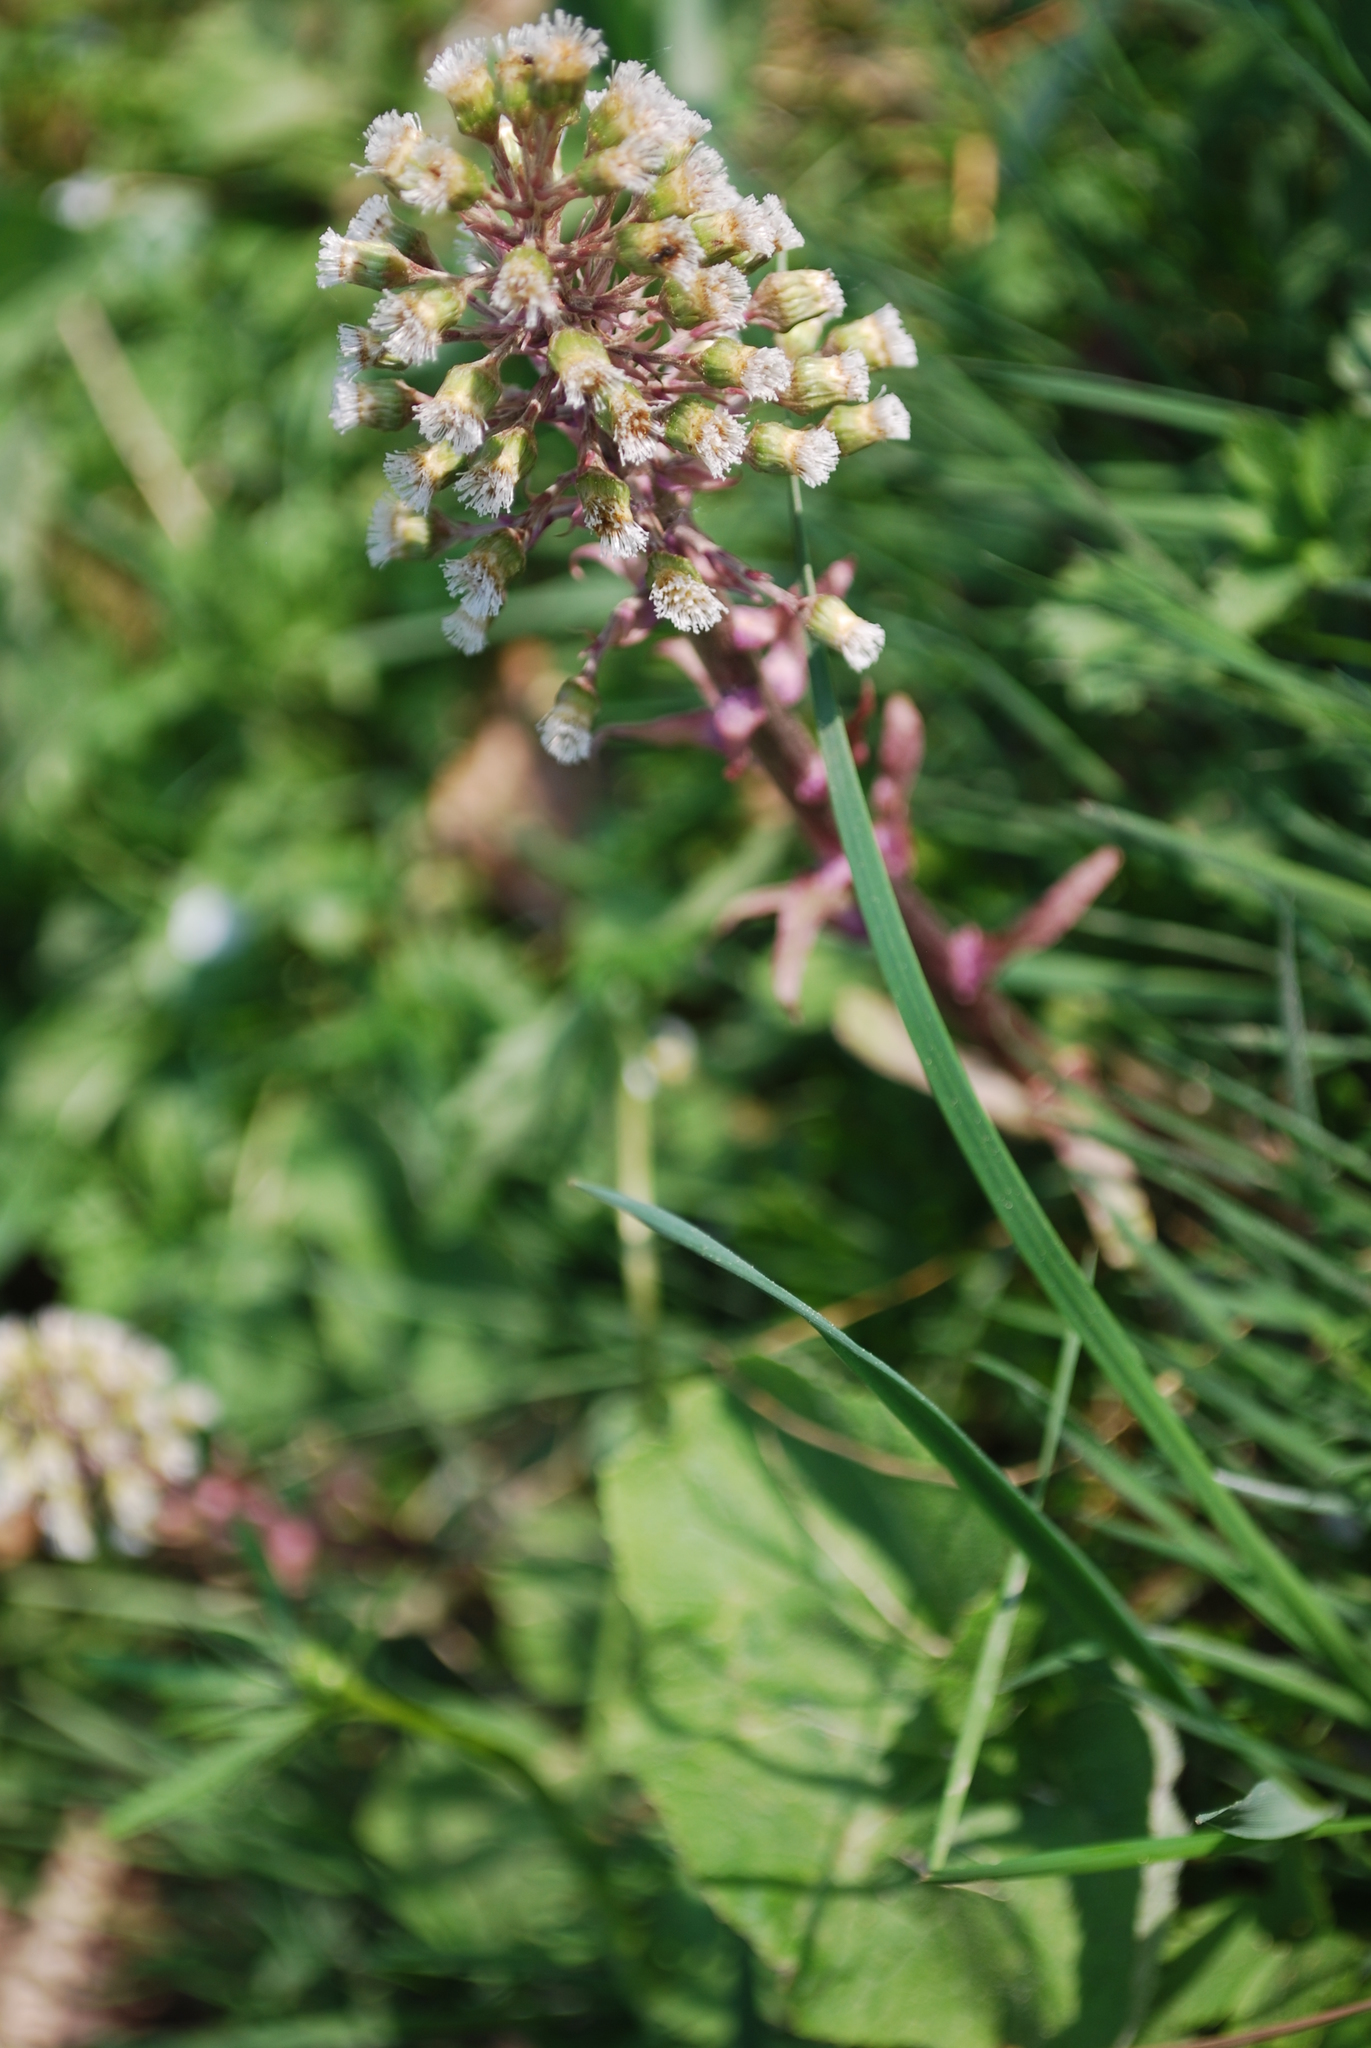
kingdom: Plantae
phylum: Tracheophyta
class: Magnoliopsida
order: Asterales
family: Asteraceae
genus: Petasites
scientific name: Petasites hybridus
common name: Butterbur
